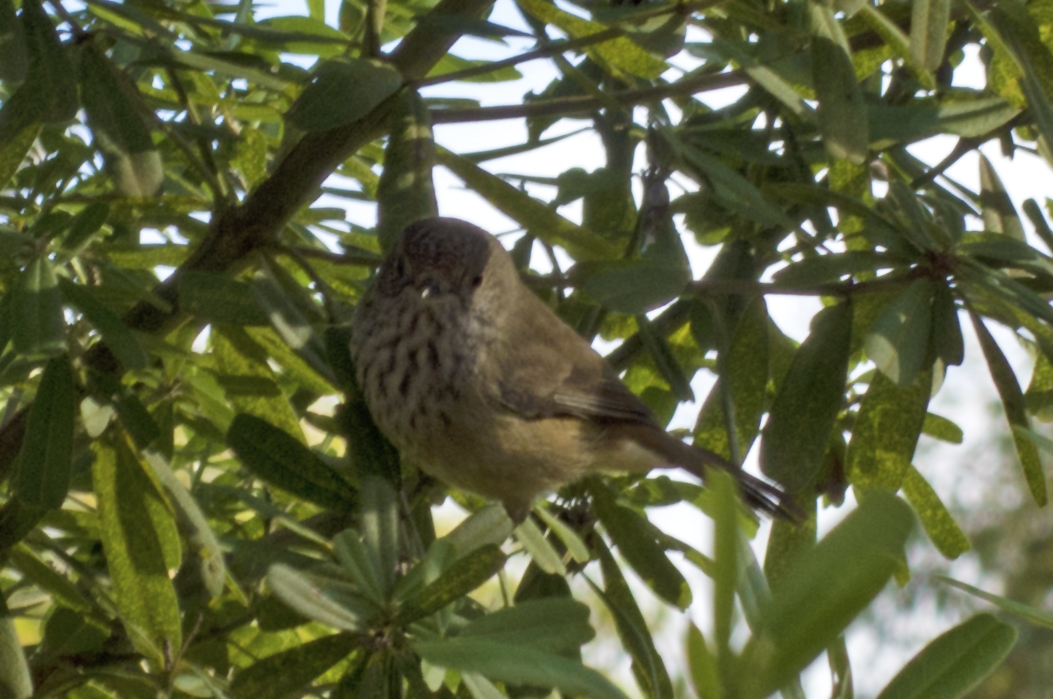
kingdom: Animalia
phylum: Chordata
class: Aves
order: Passeriformes
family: Acanthizidae
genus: Acanthiza
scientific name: Acanthiza apicalis
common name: Inland thornbill
